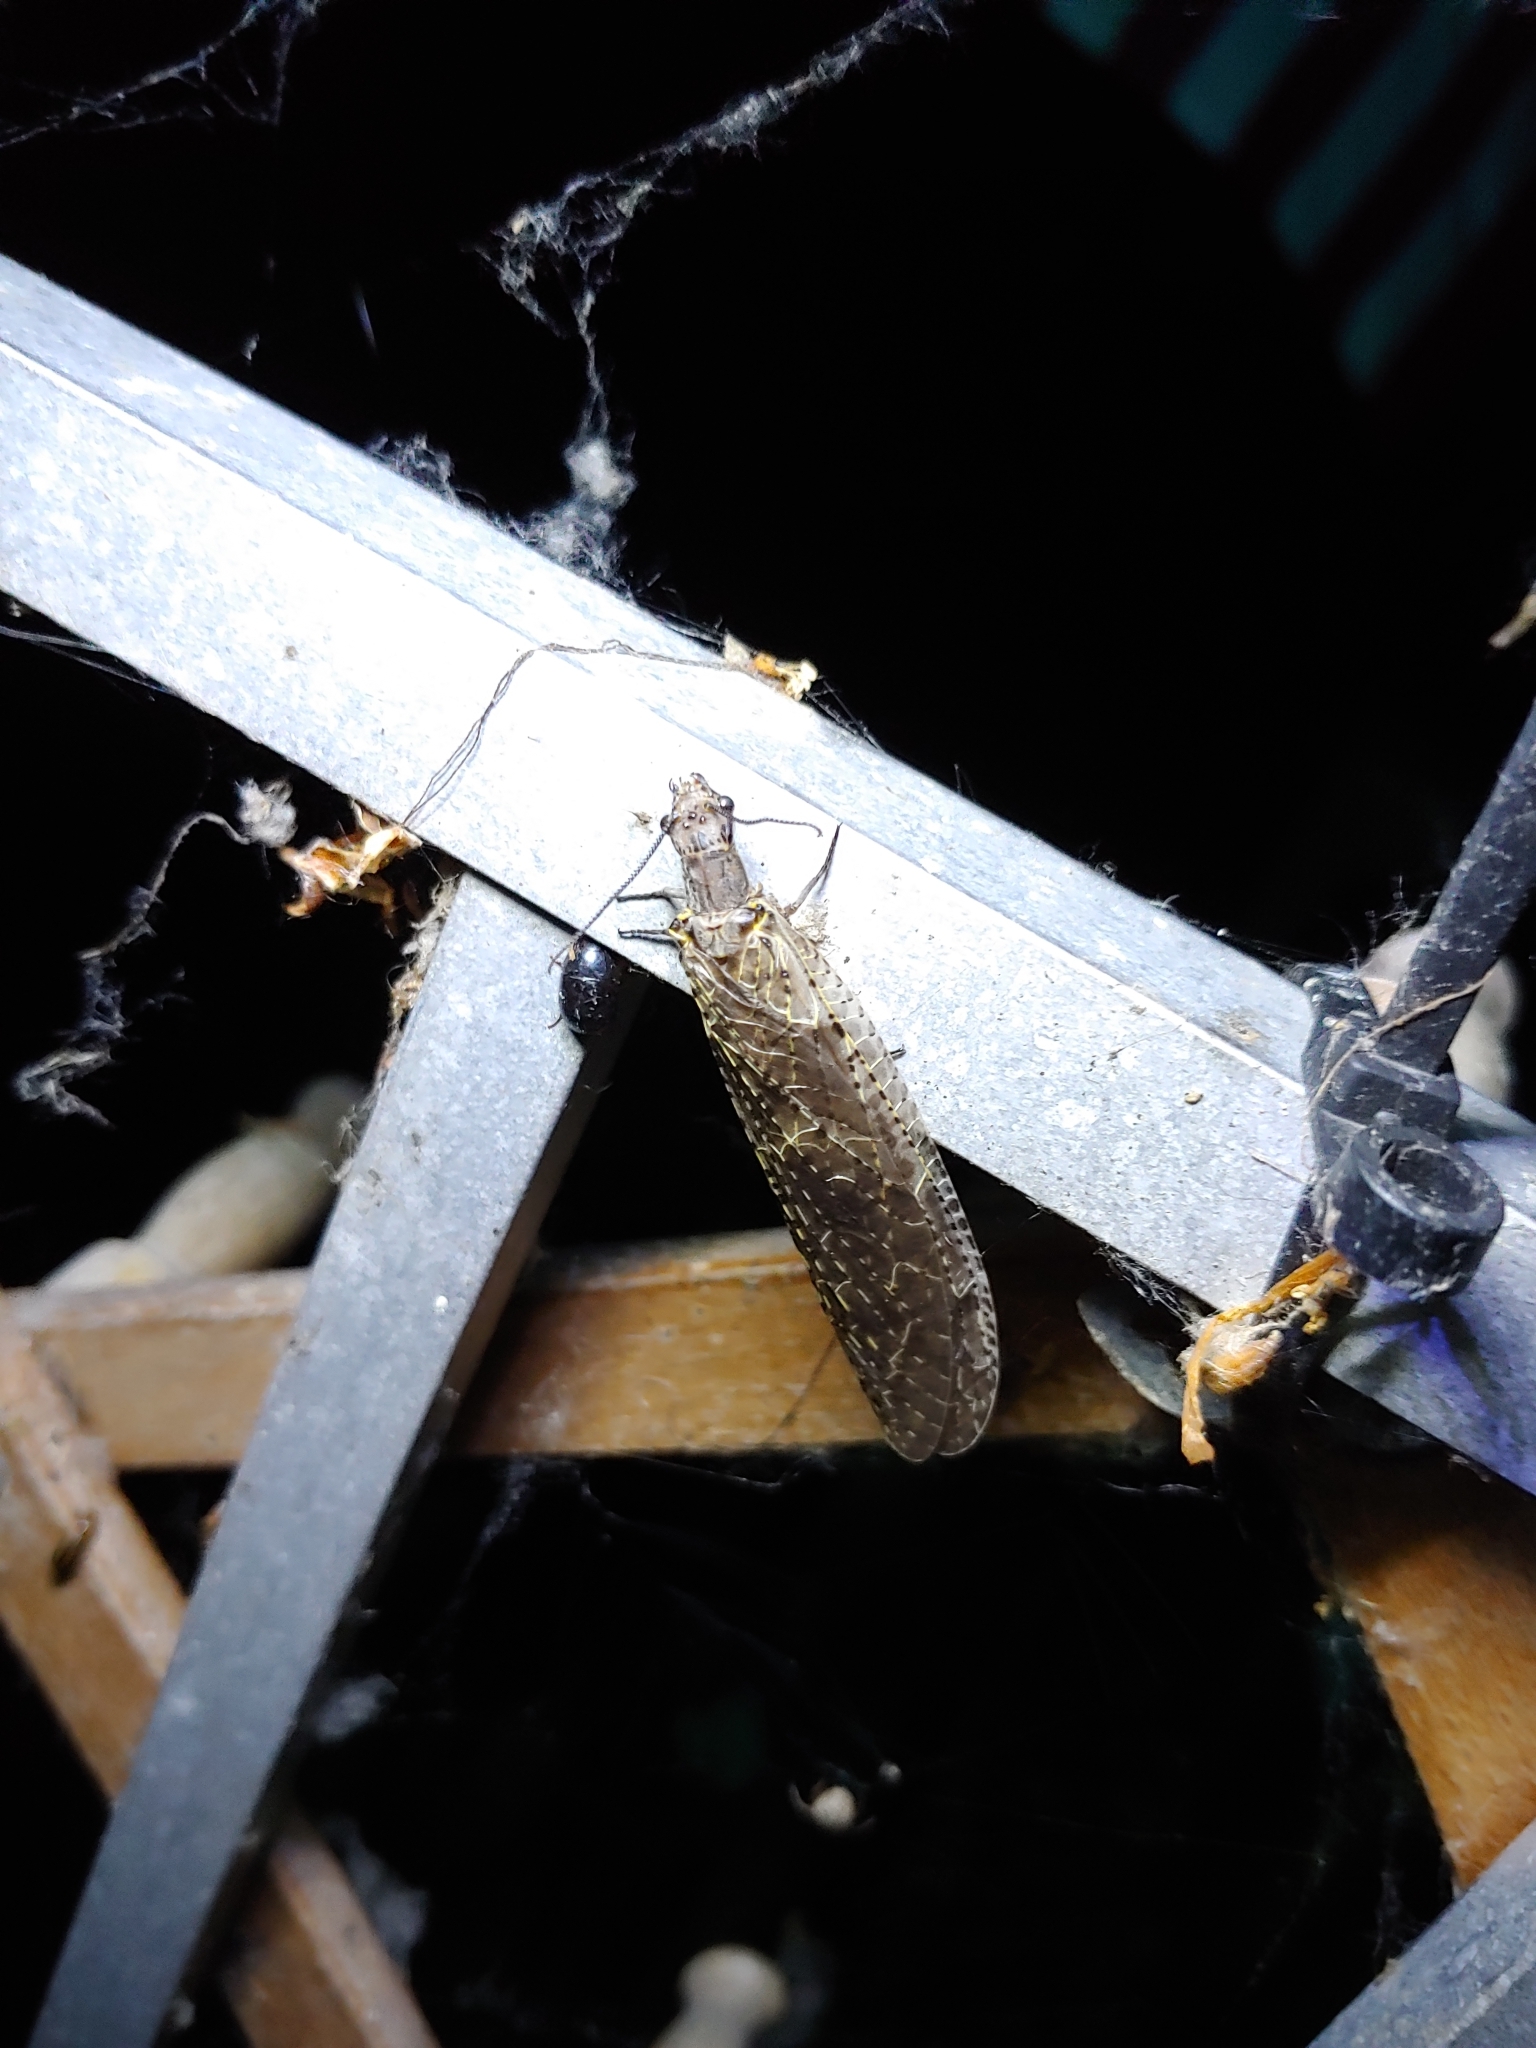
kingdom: Animalia
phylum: Arthropoda
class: Insecta
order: Megaloptera
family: Corydalidae
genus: Chauliodes
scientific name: Chauliodes rastricornis
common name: Spring fishfly
